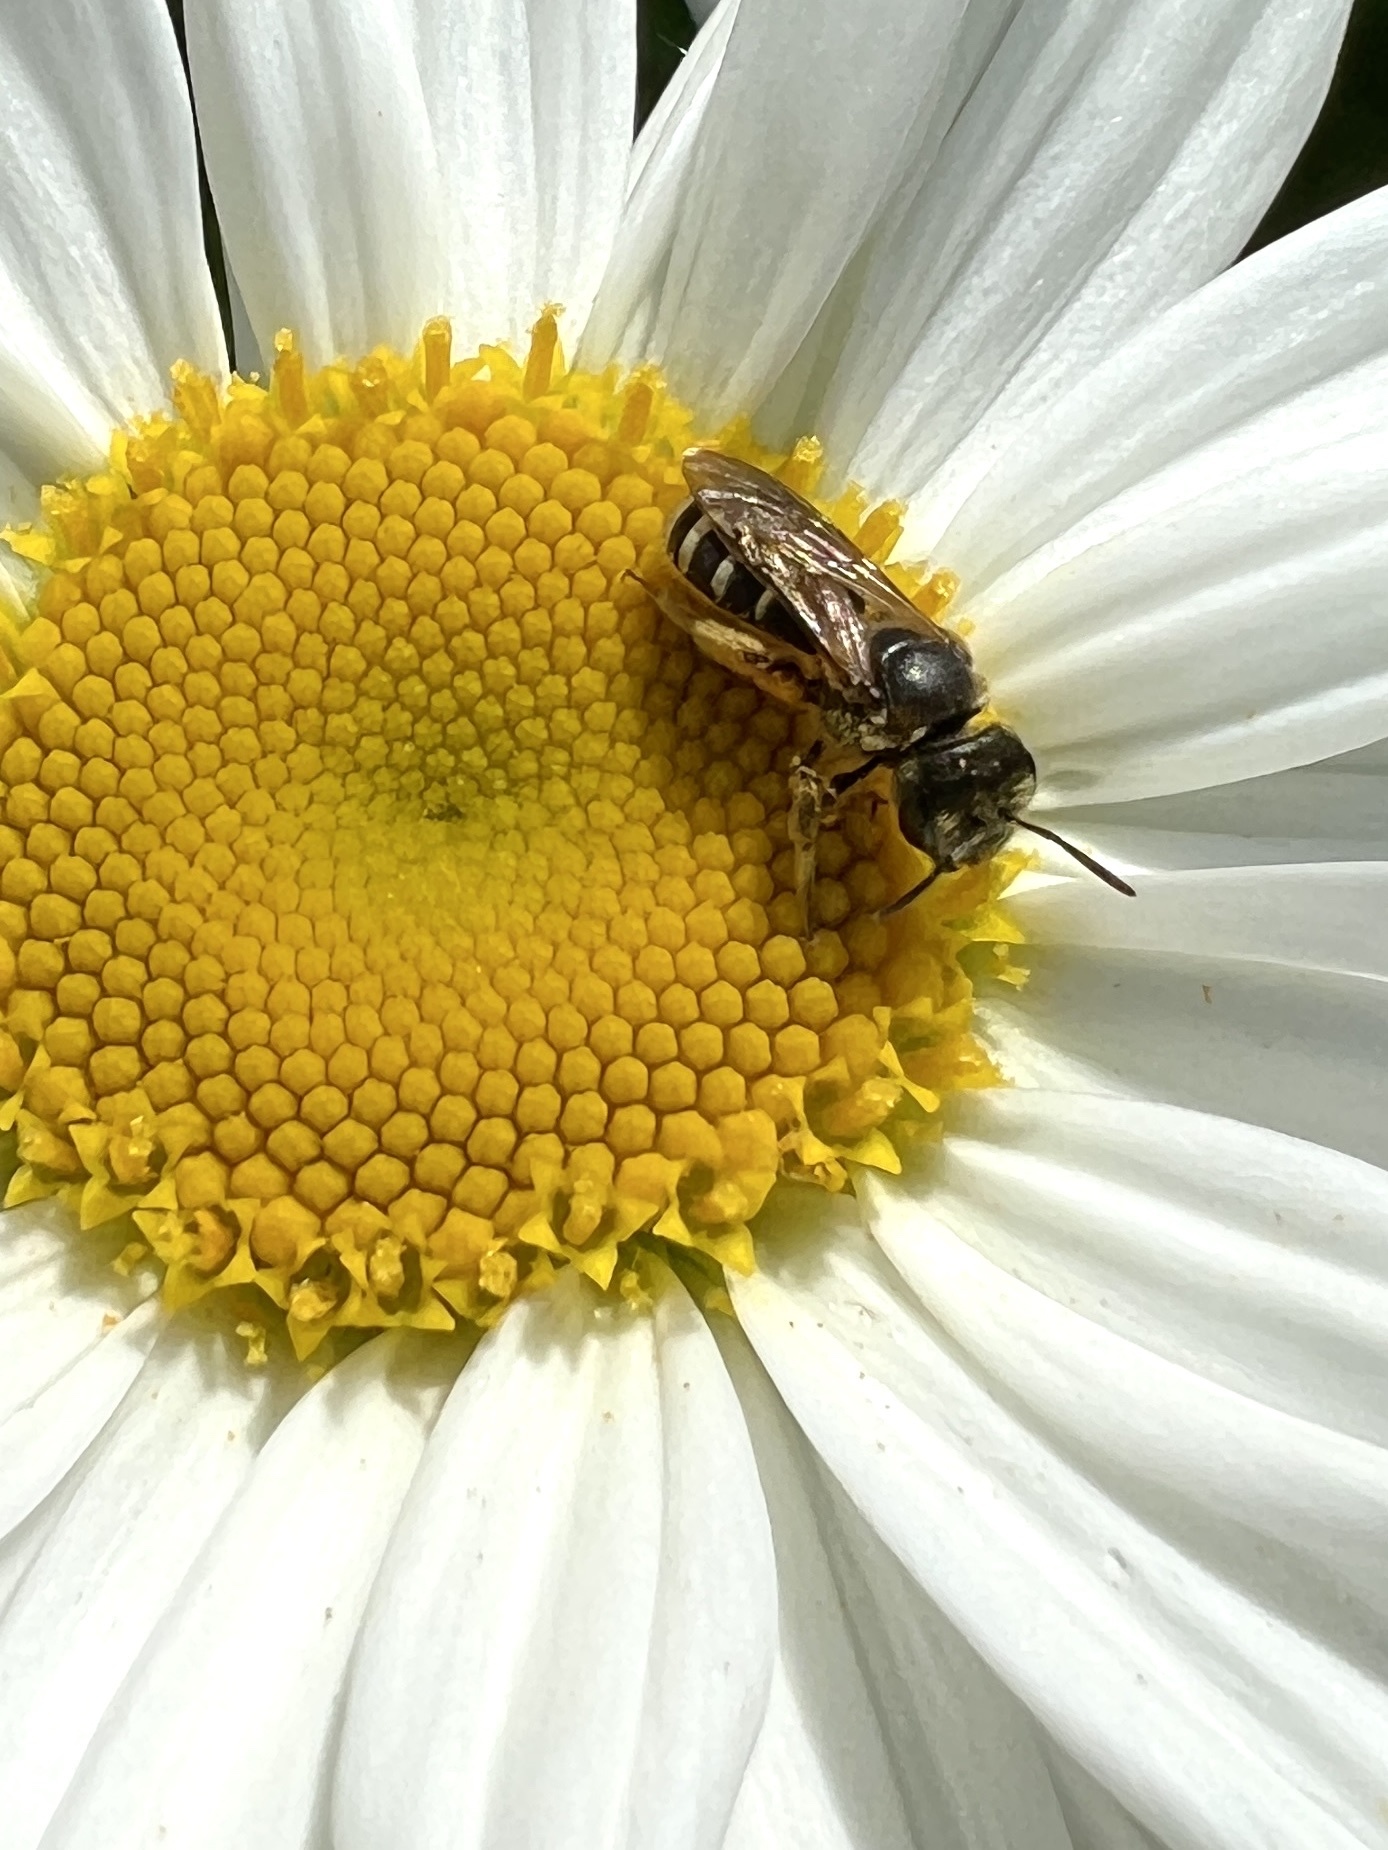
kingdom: Animalia
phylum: Arthropoda
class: Insecta
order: Hymenoptera
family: Halictidae
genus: Halictus
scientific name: Halictus ligatus
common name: Ligated furrow bee
